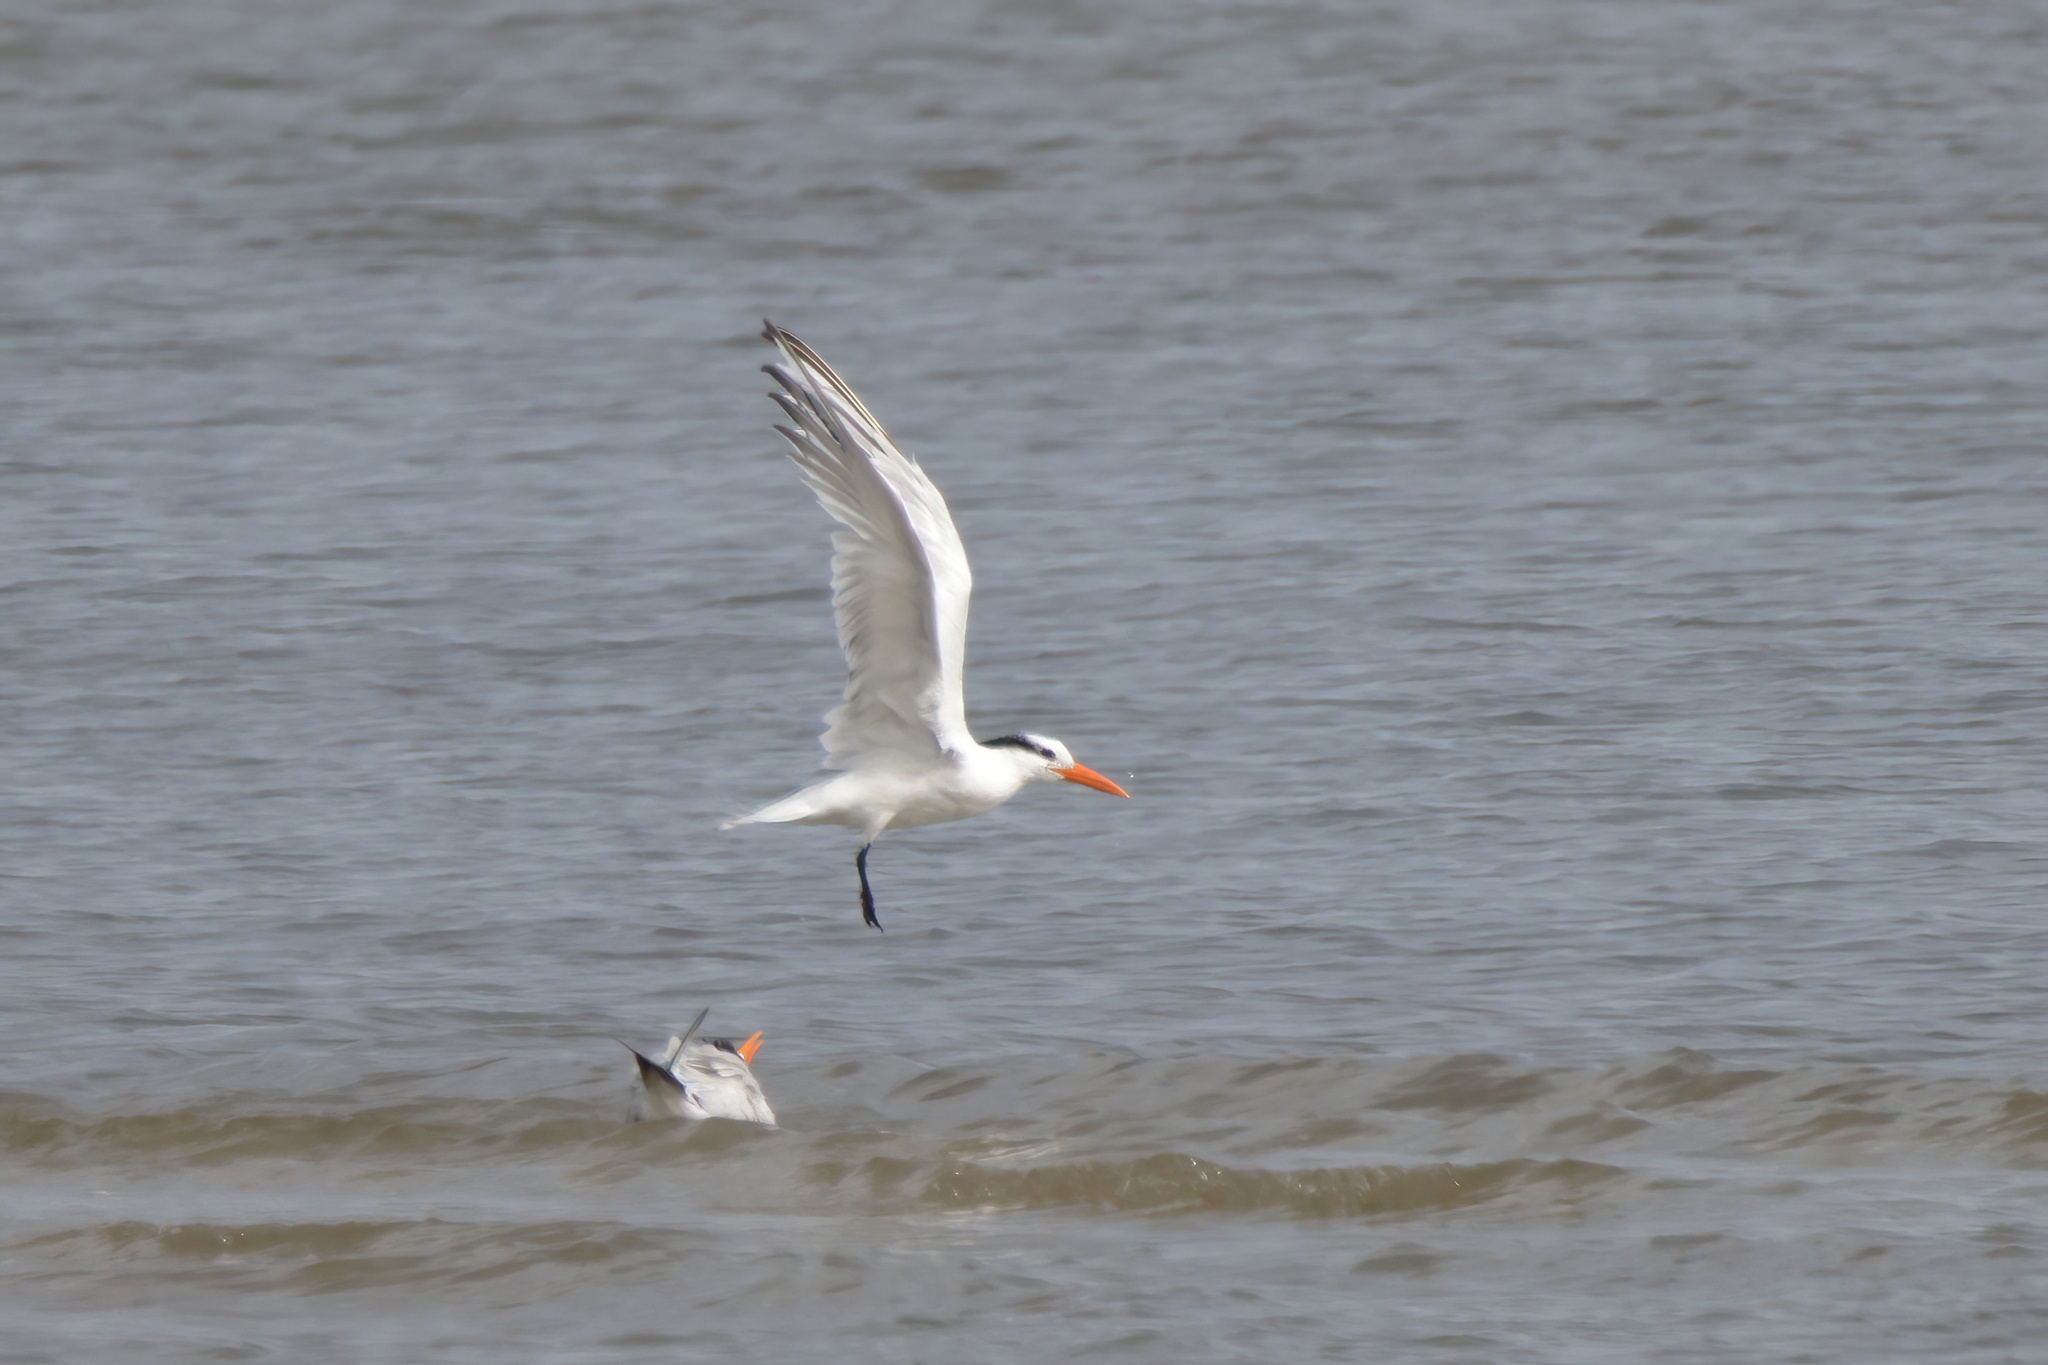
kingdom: Animalia
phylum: Chordata
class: Aves
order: Charadriiformes
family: Laridae
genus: Thalasseus
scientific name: Thalasseus maximus
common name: Royal tern
